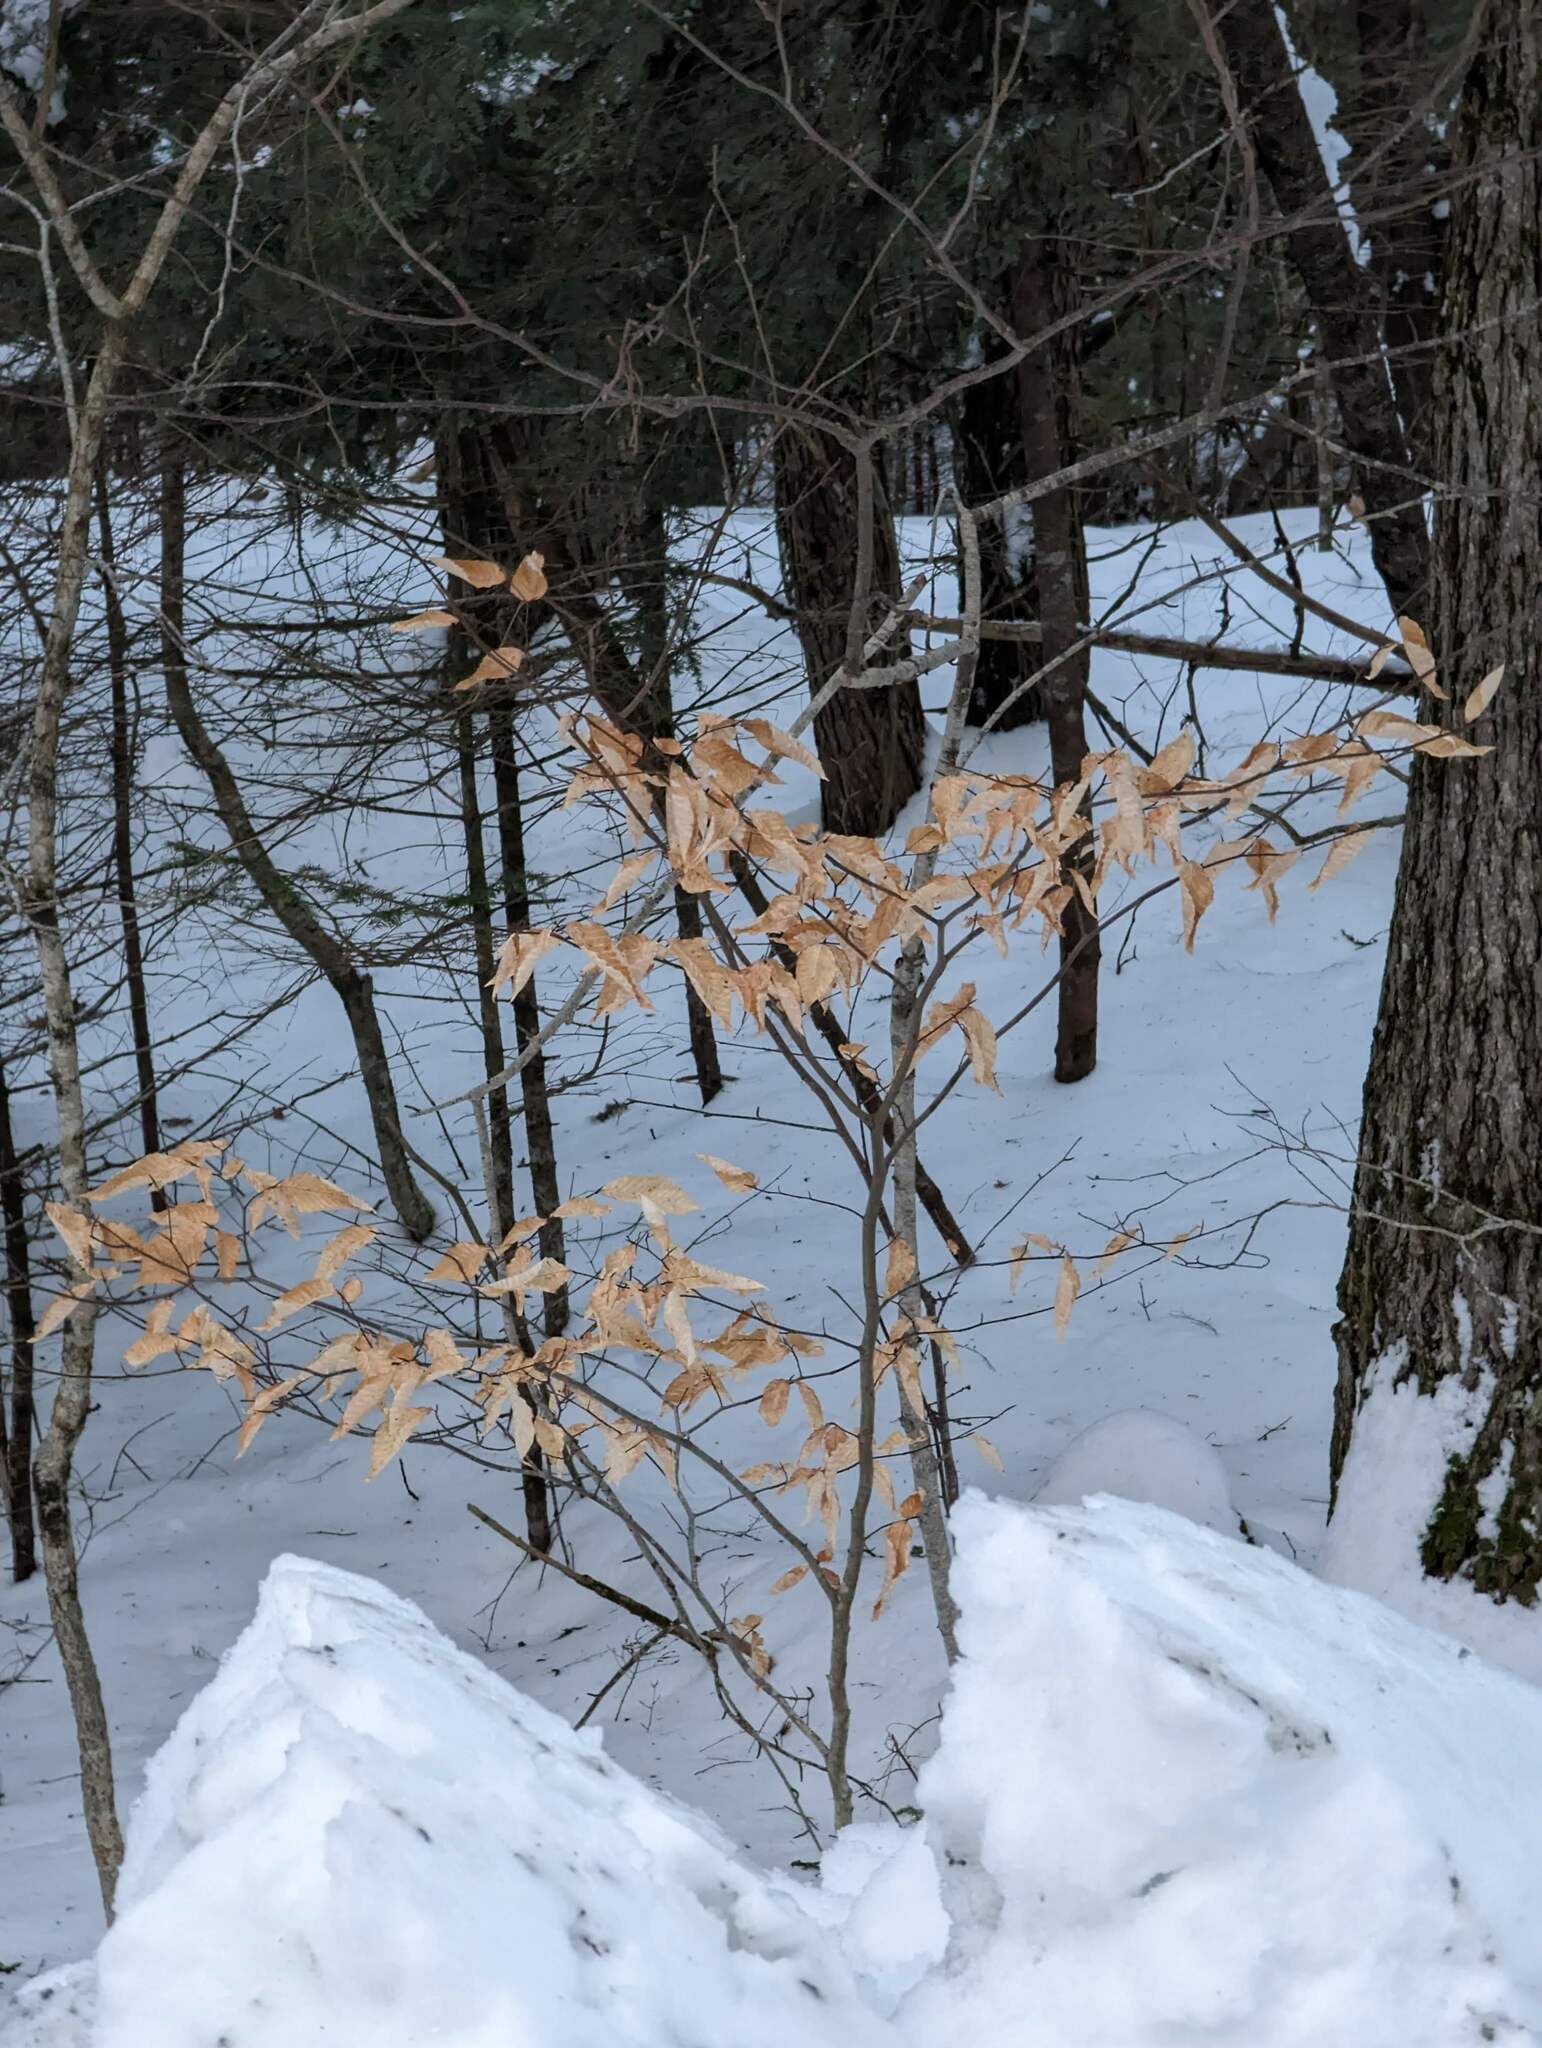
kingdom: Plantae
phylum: Tracheophyta
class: Magnoliopsida
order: Fagales
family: Fagaceae
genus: Fagus
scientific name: Fagus grandifolia
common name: American beech
